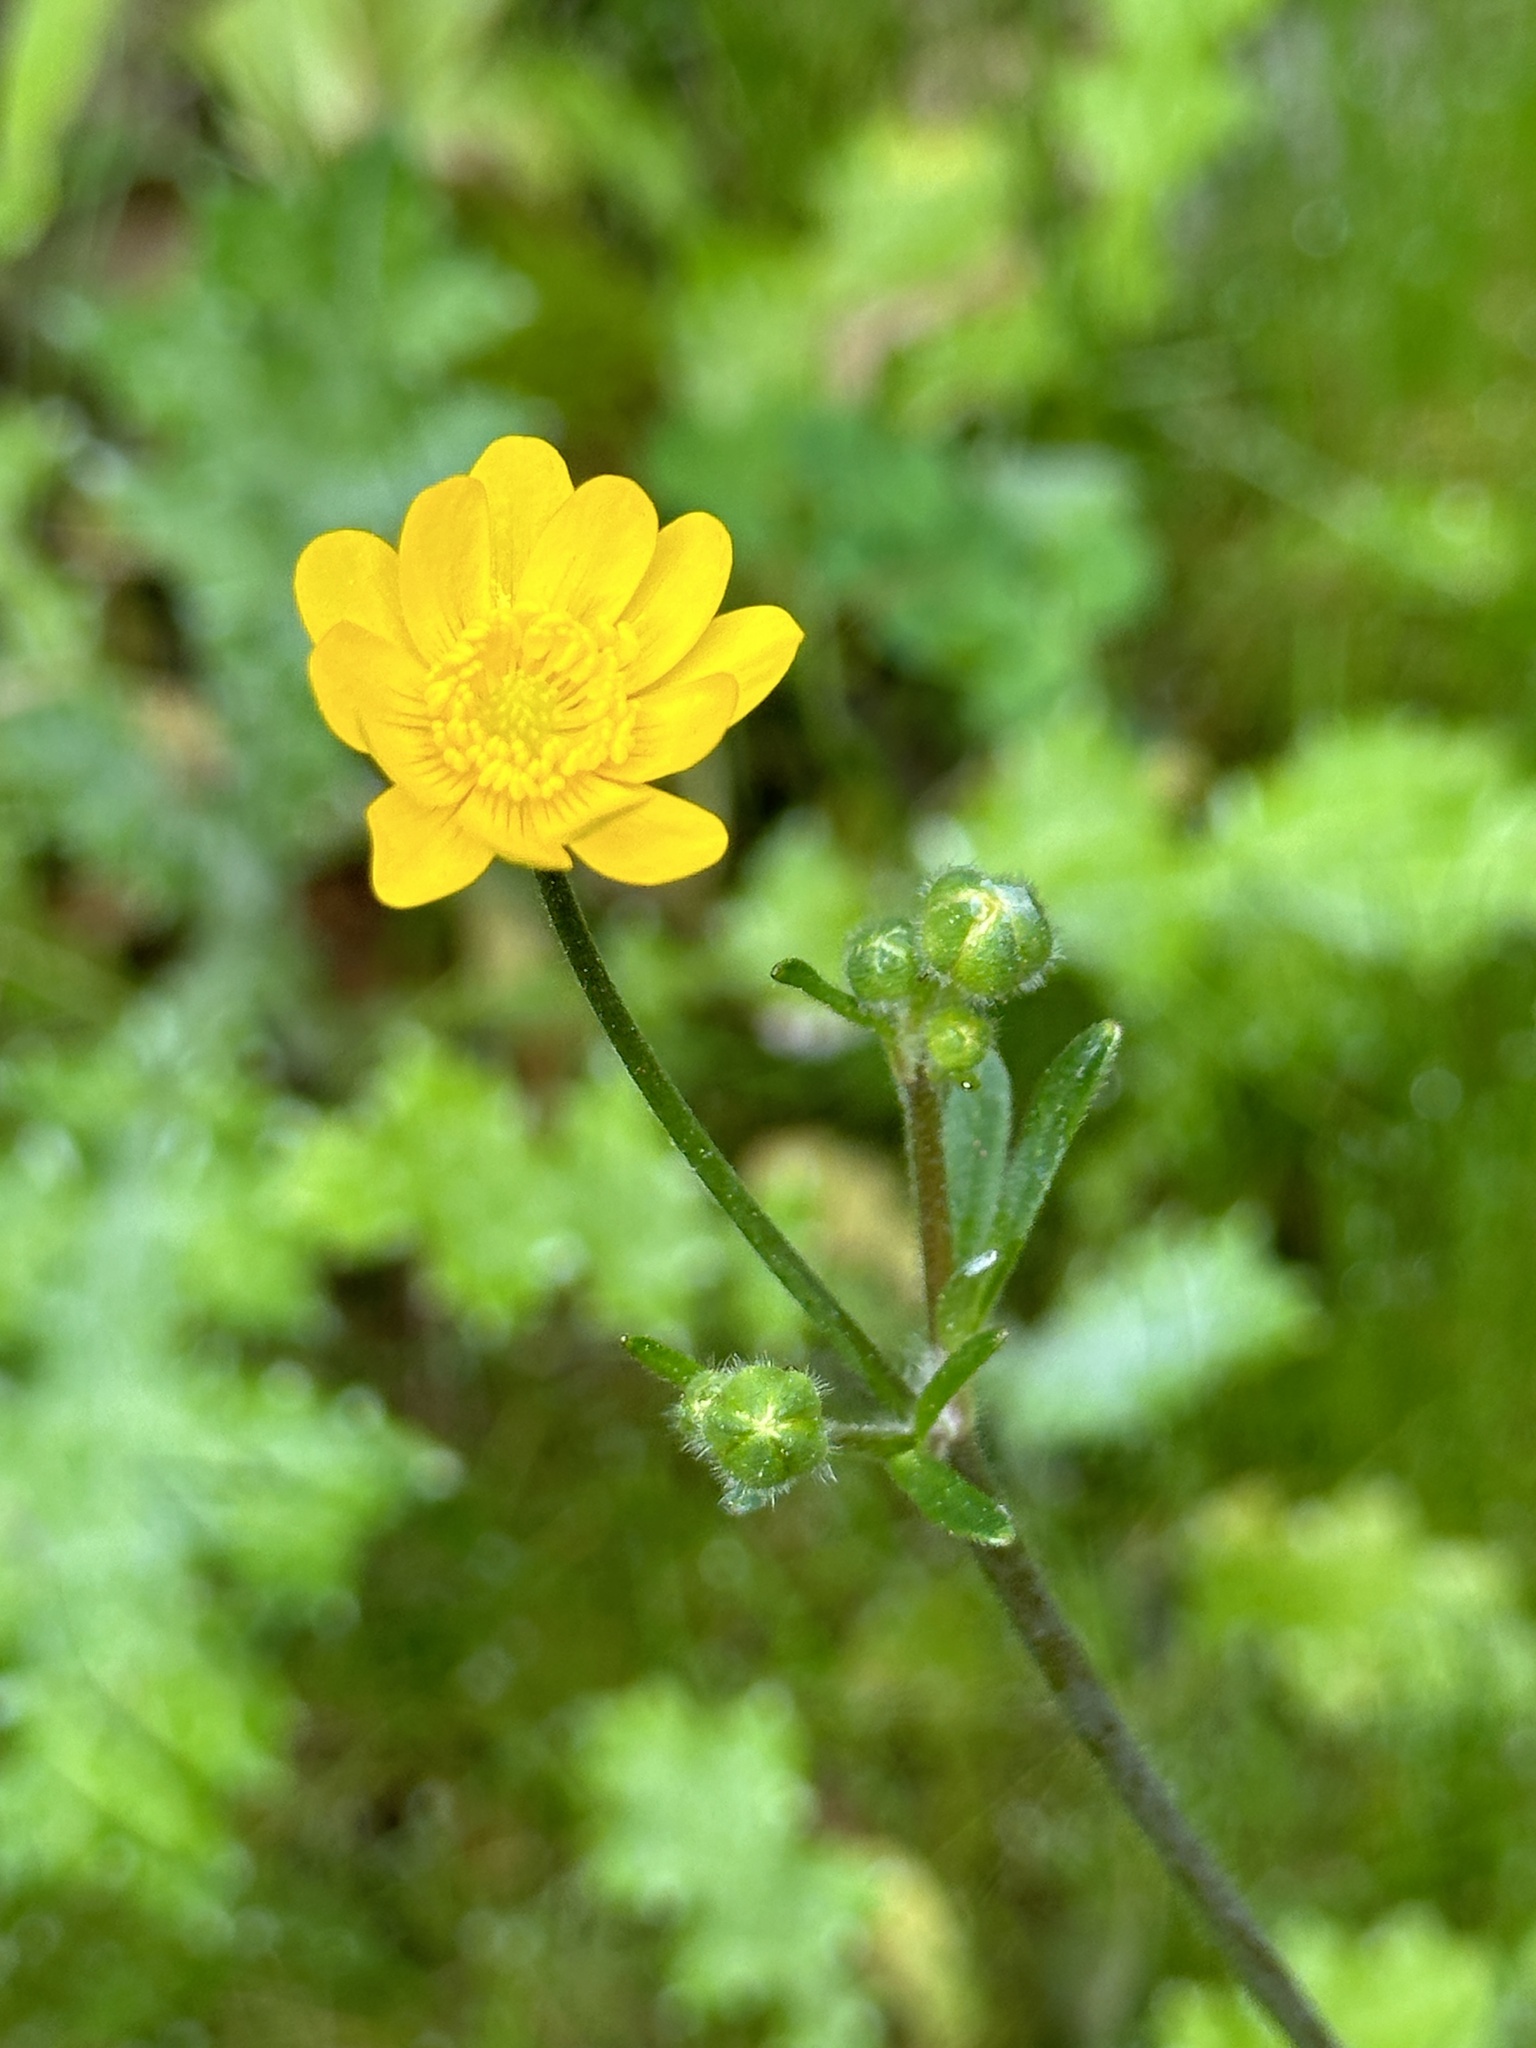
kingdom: Plantae
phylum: Tracheophyta
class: Magnoliopsida
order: Ranunculales
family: Ranunculaceae
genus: Ranunculus
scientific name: Ranunculus californicus
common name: California buttercup
